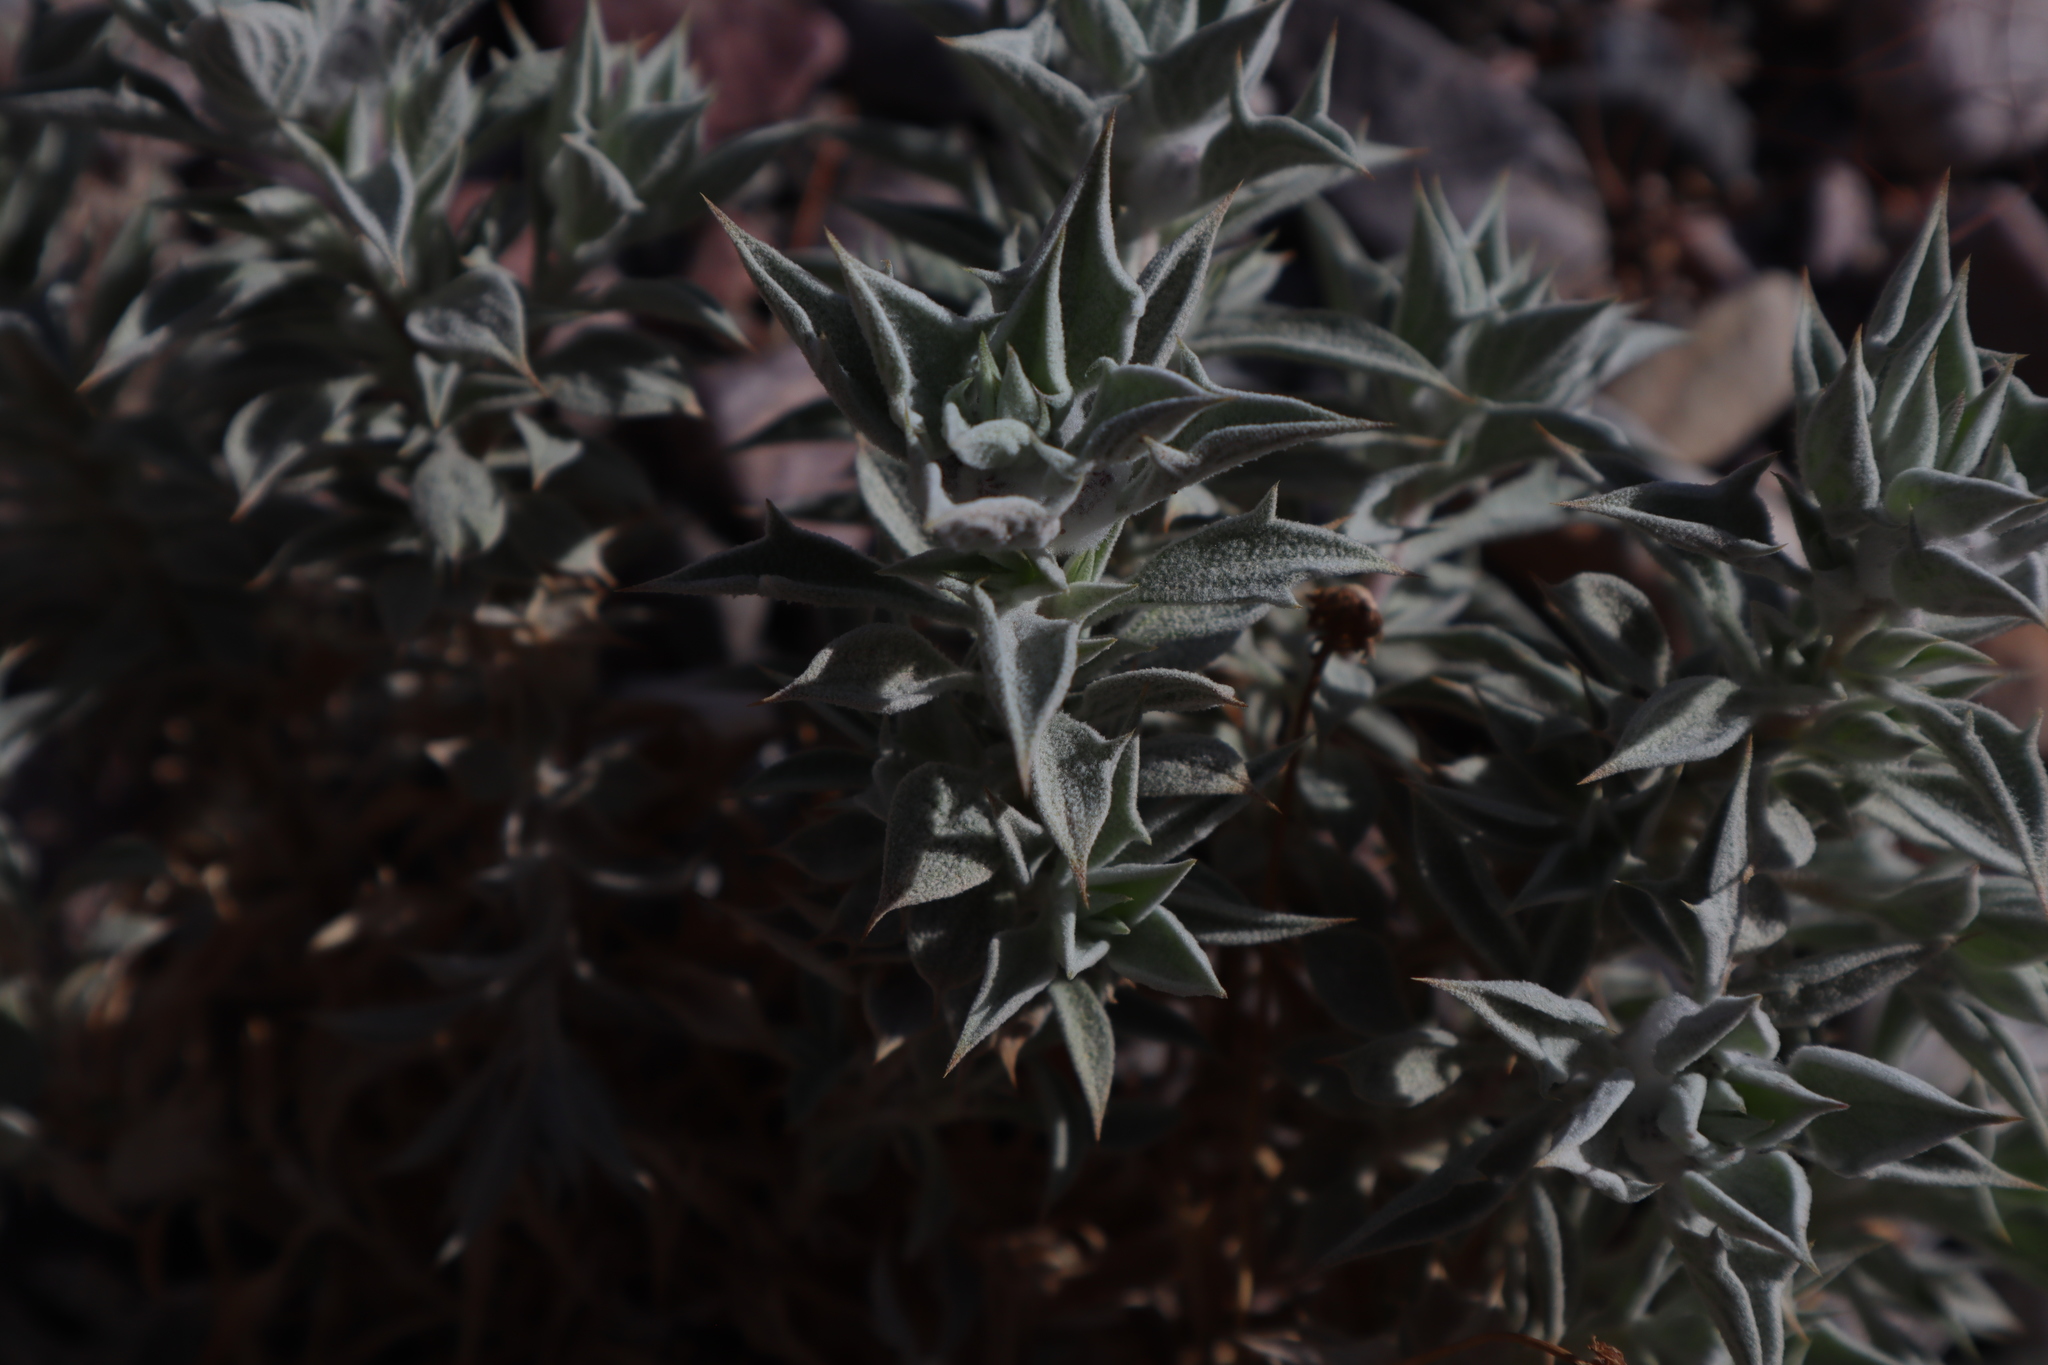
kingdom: Plantae
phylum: Tracheophyta
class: Magnoliopsida
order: Lamiales
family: Lamiaceae
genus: Salvia
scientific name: Salvia funerea
